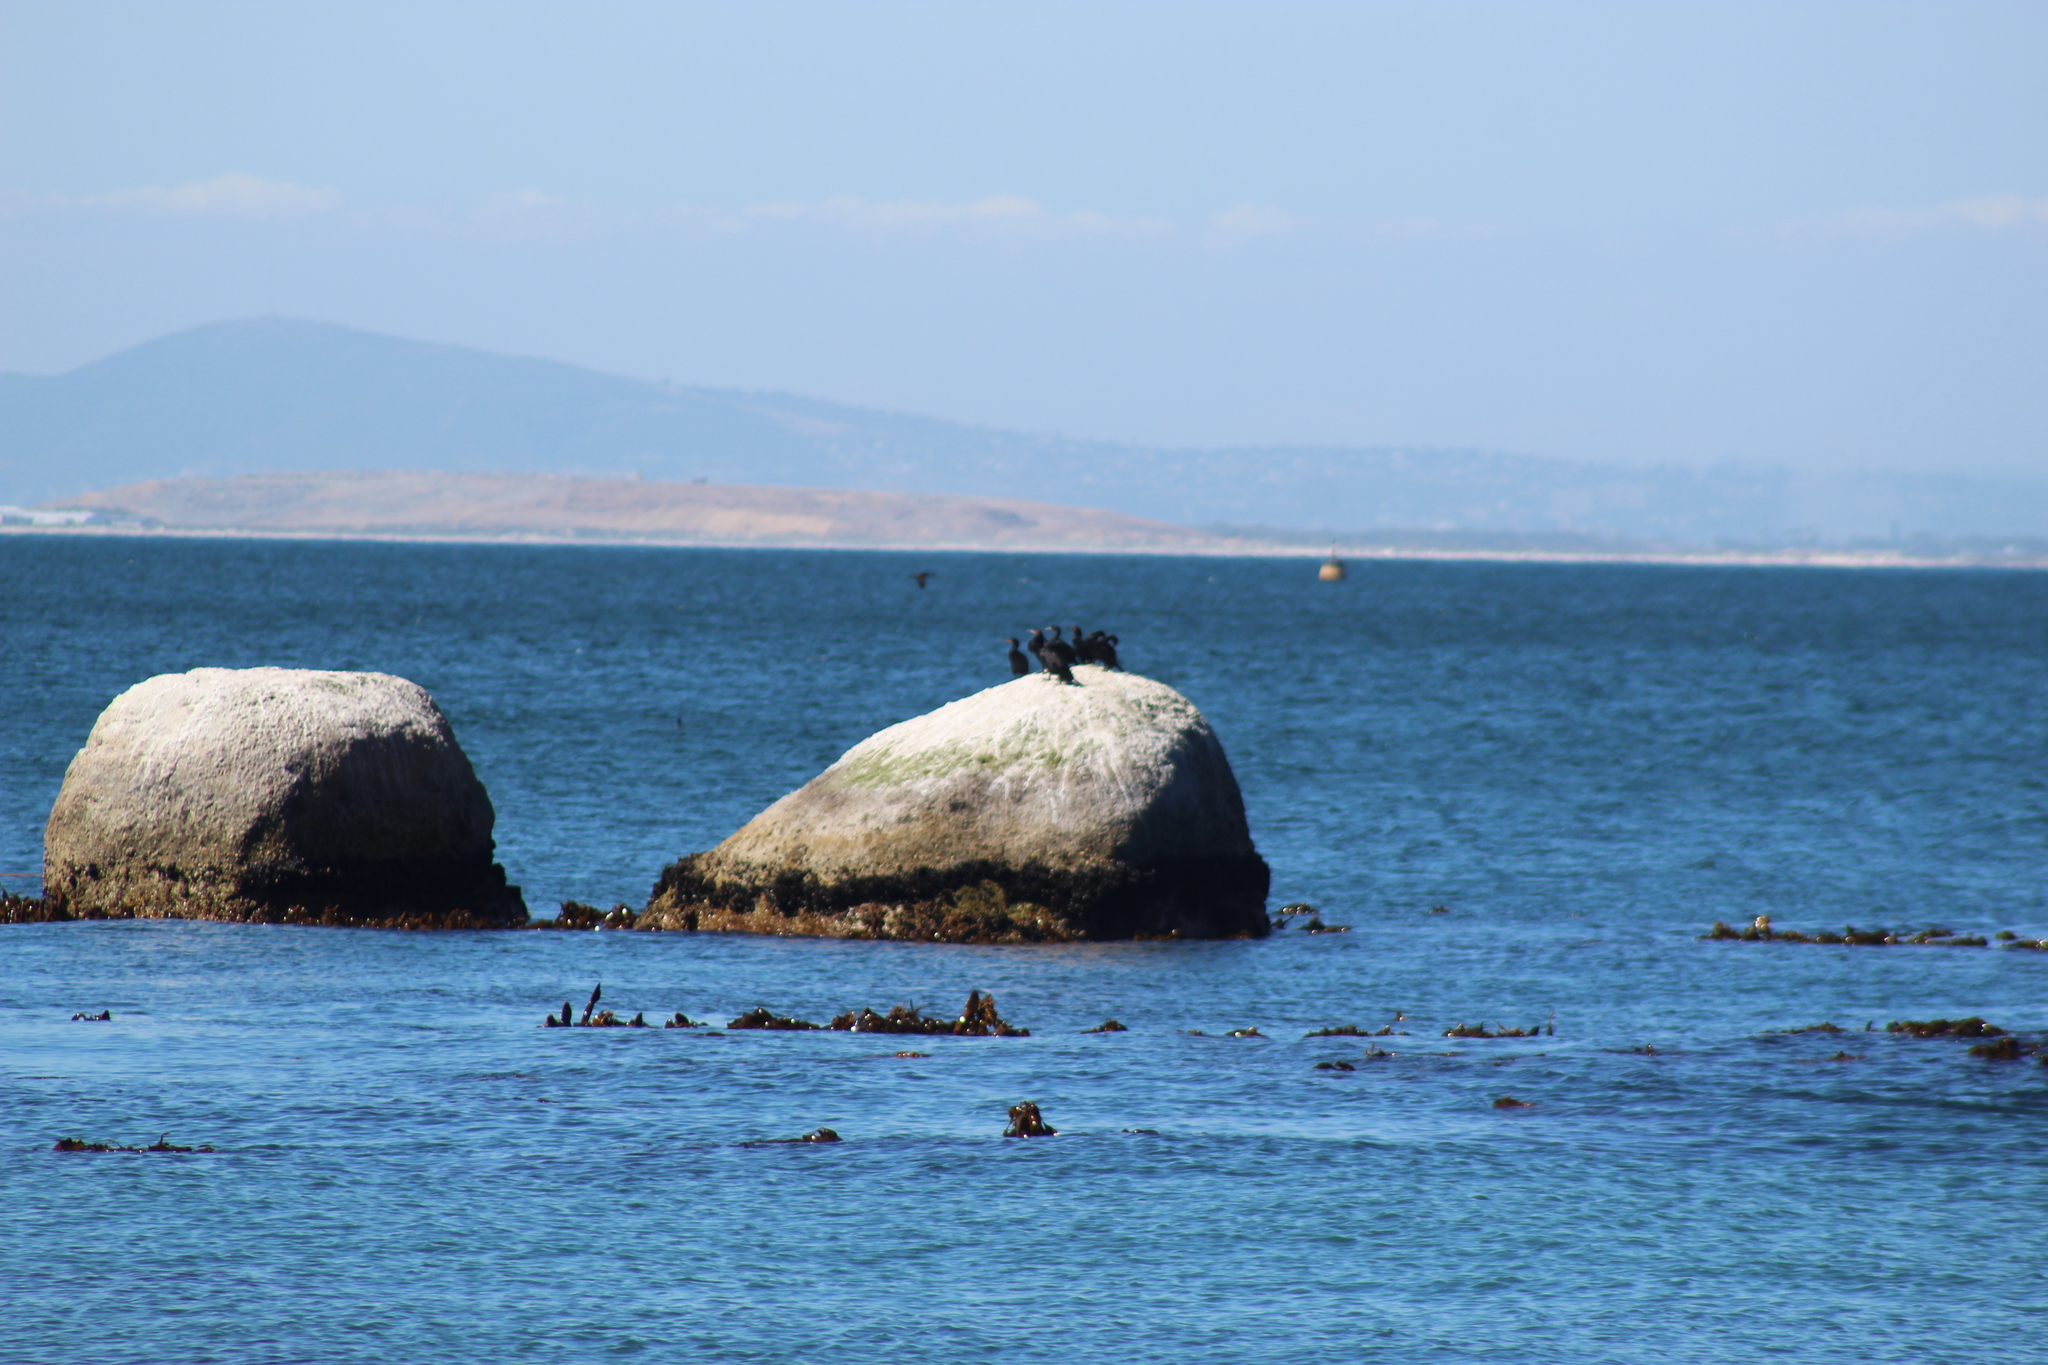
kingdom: Animalia
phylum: Chordata
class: Aves
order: Suliformes
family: Phalacrocoracidae
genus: Phalacrocorax
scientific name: Phalacrocorax capensis
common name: Cape cormorant
